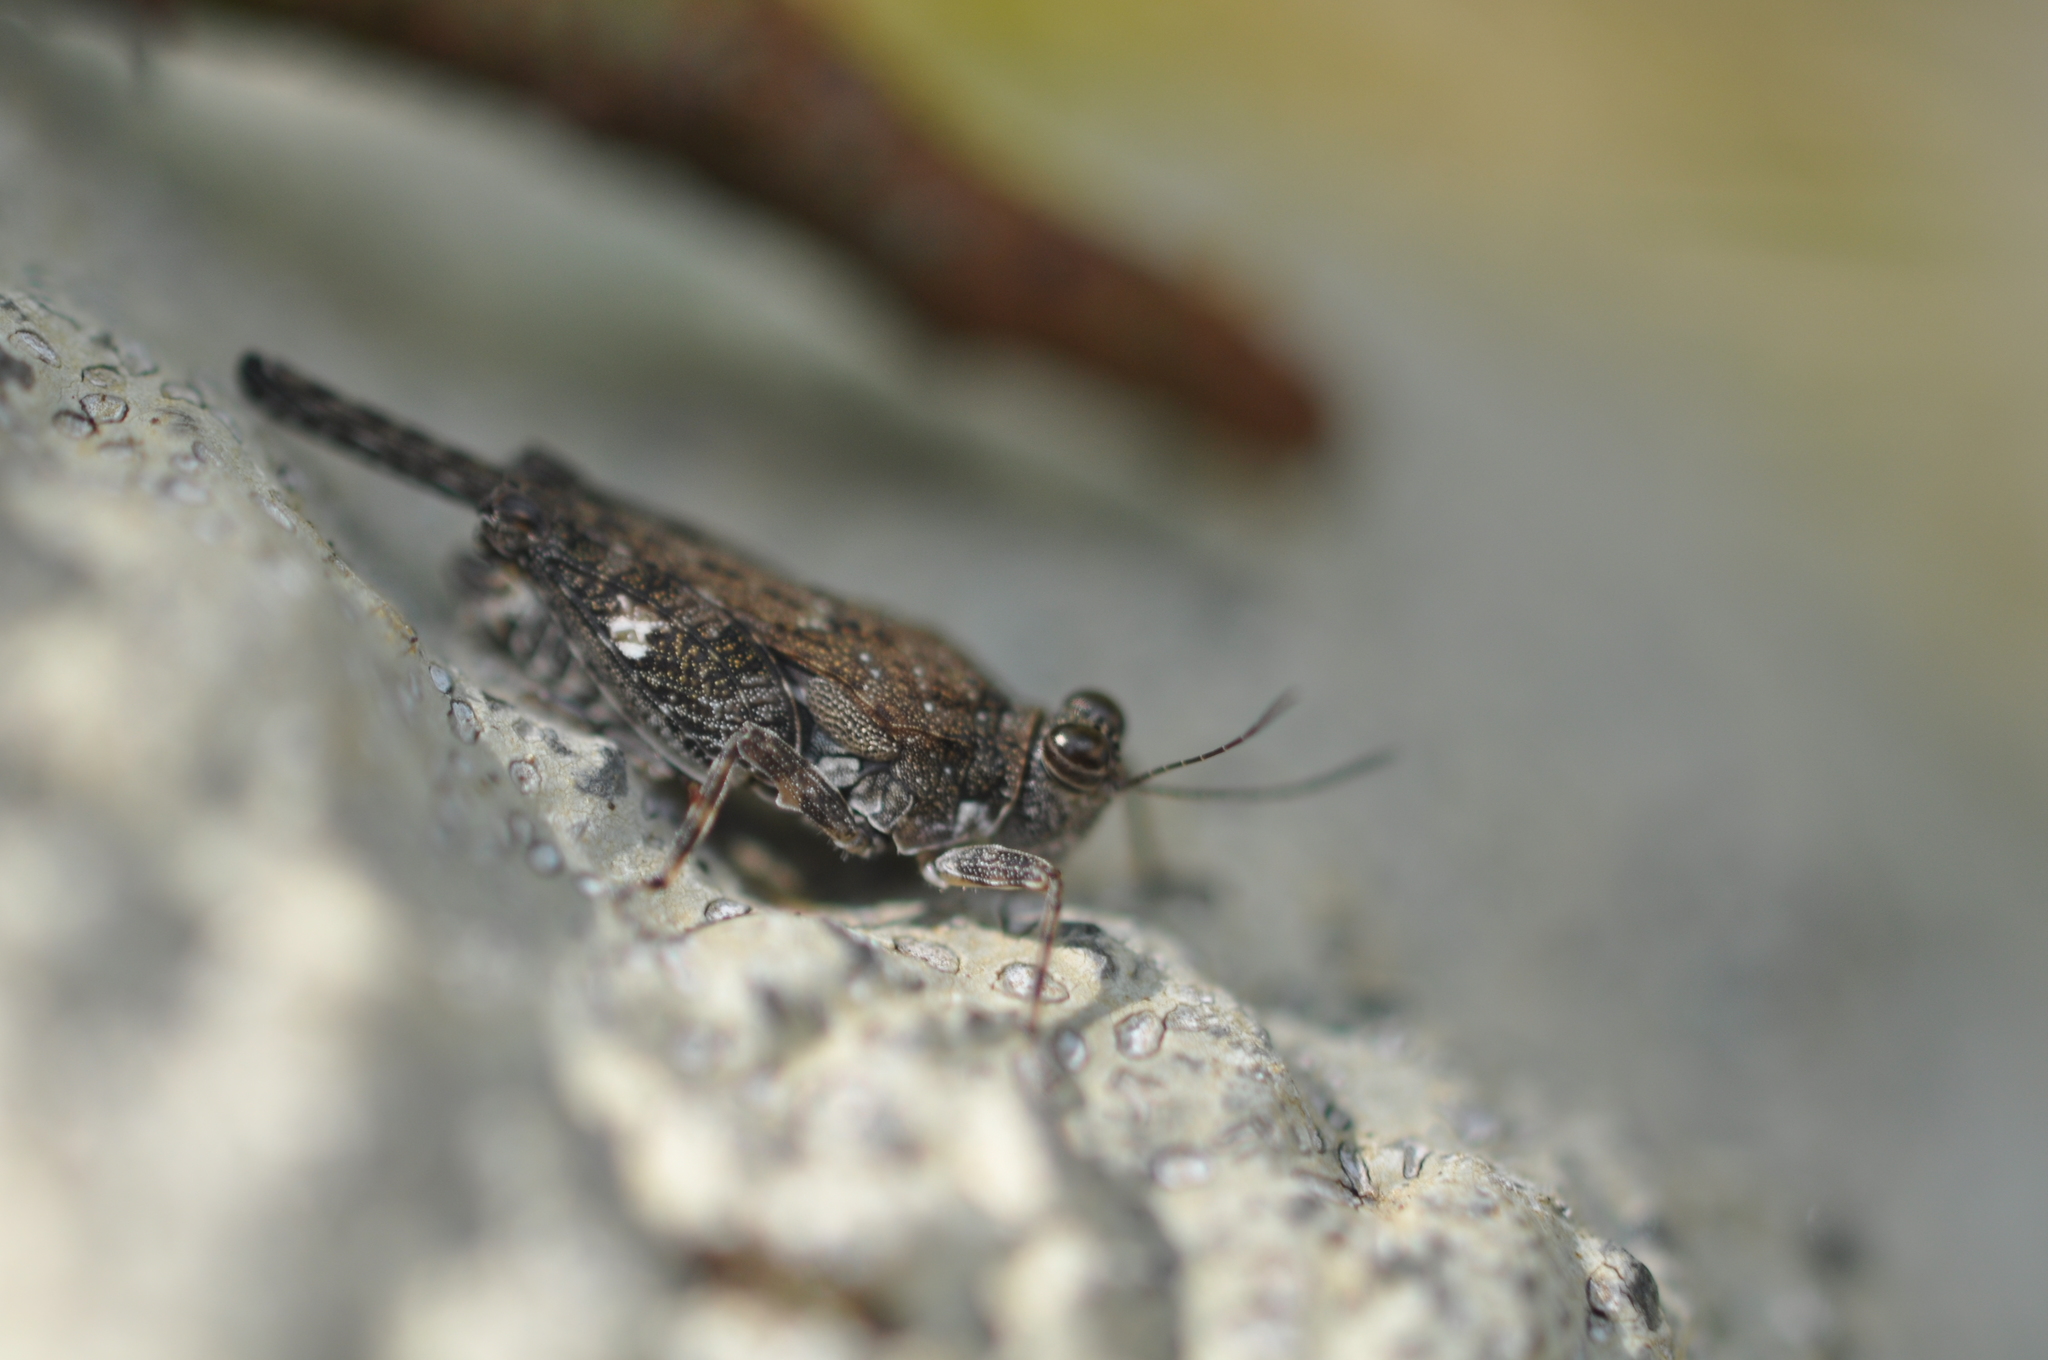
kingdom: Animalia
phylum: Arthropoda
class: Insecta
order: Orthoptera
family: Tetrigidae
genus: Pseudosystolederus
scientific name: Pseudosystolederus sikorai
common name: Madagascar boulder pygmy grasshopper
